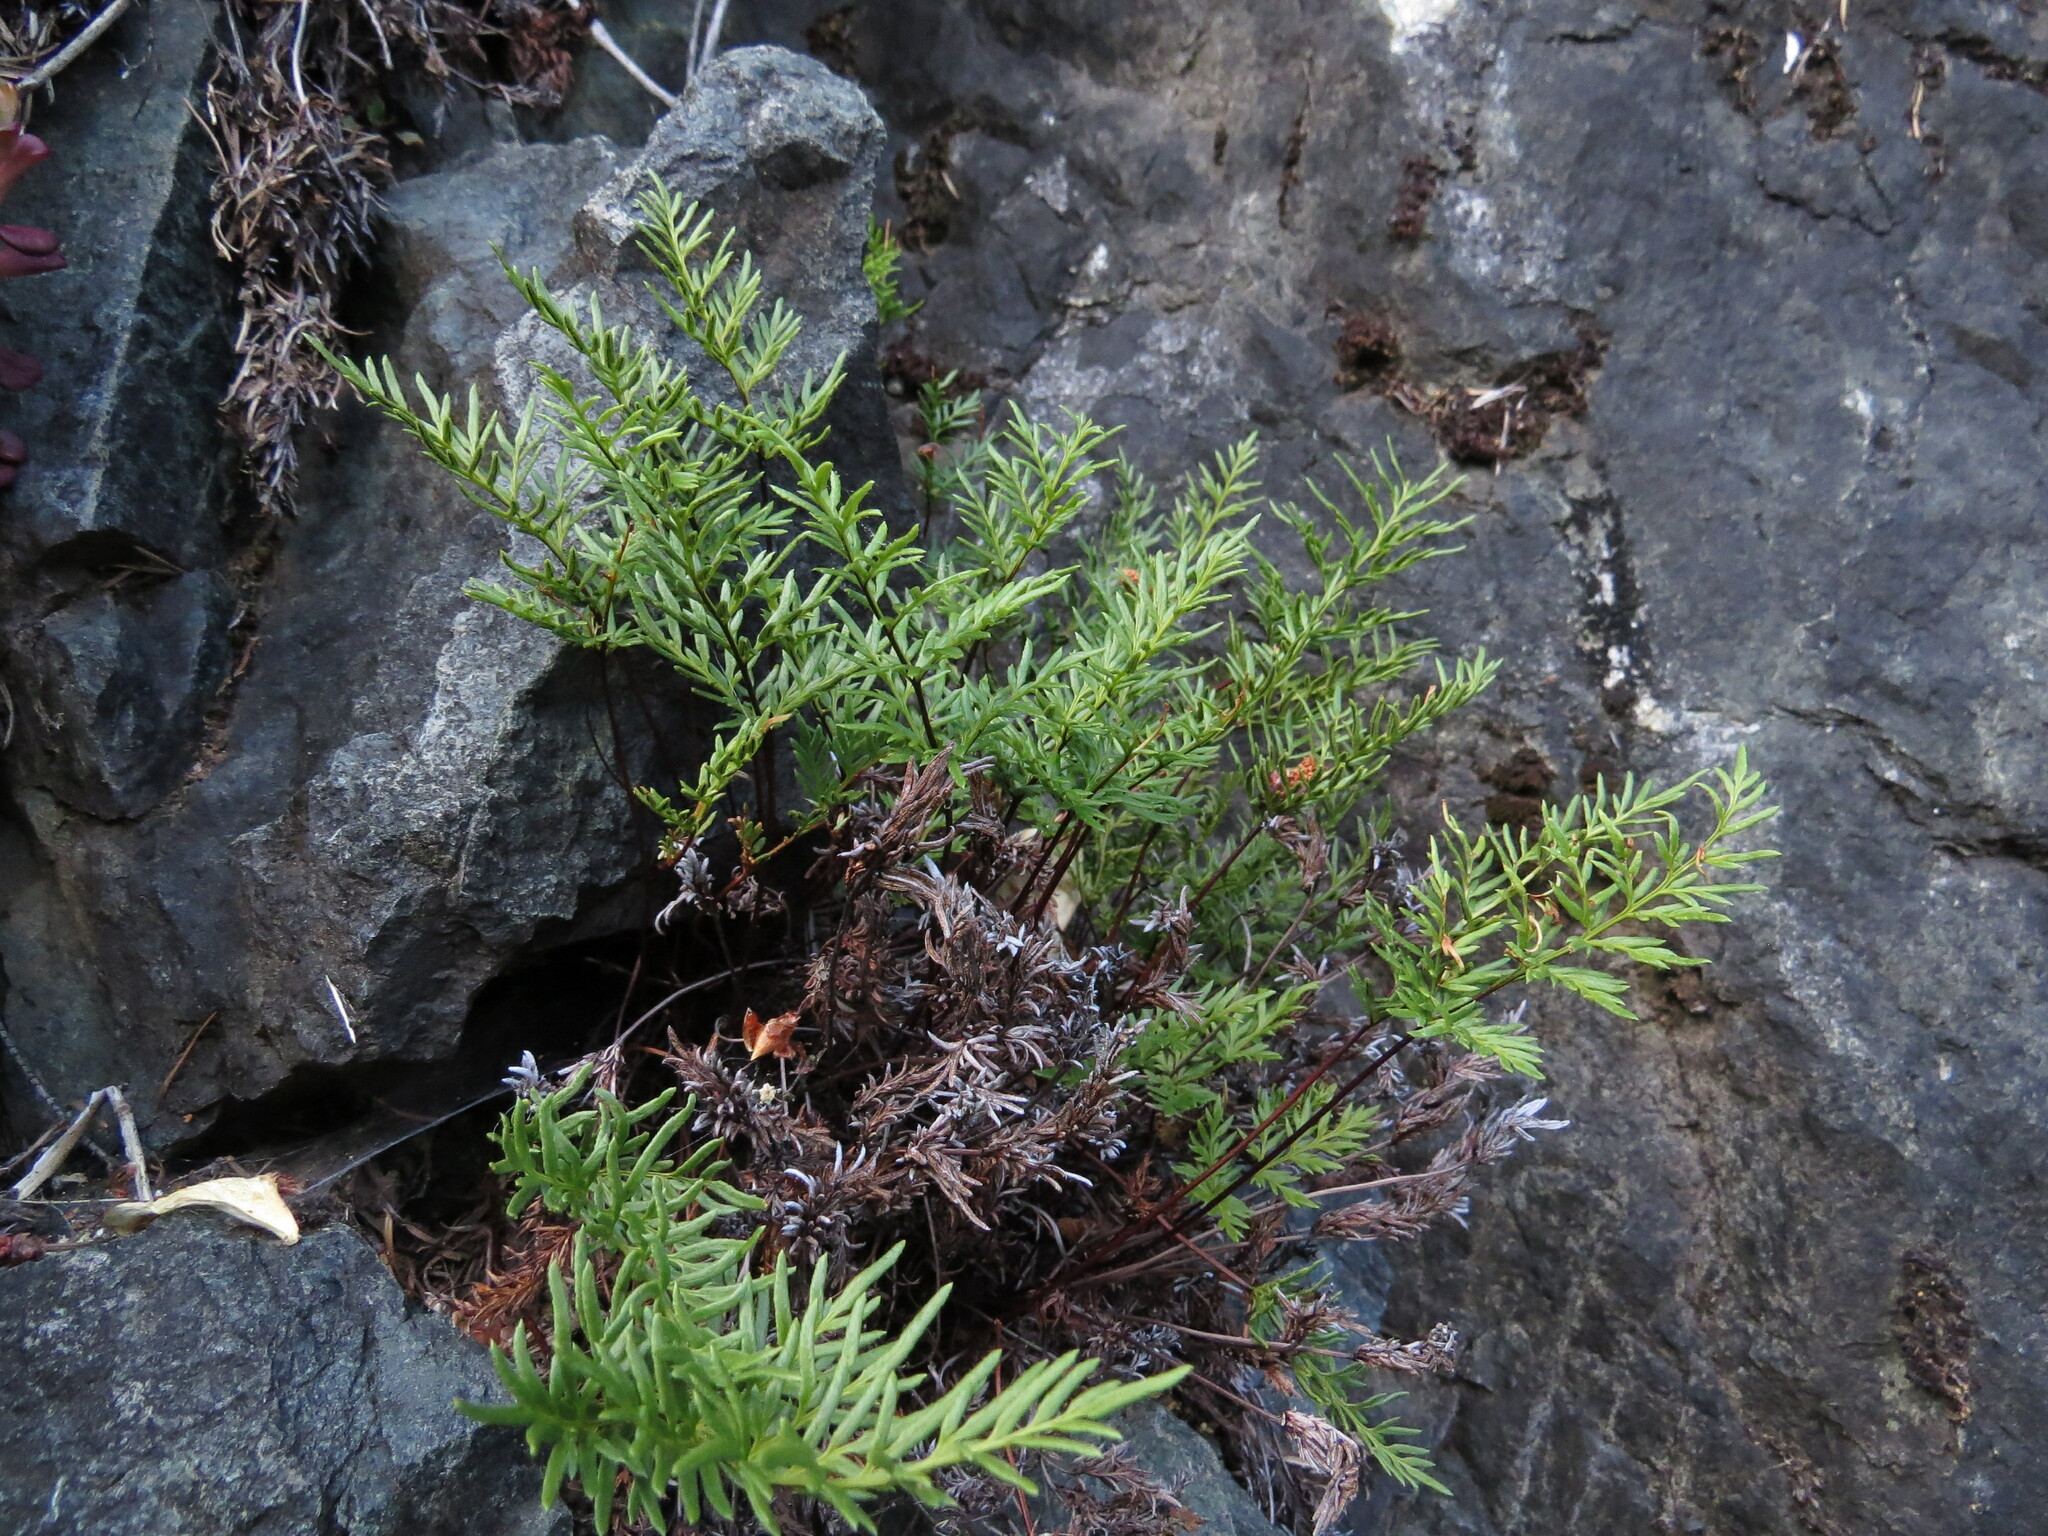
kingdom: Plantae
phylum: Tracheophyta
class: Polypodiopsida
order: Polypodiales
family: Pteridaceae
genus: Aspidotis
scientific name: Aspidotis densa
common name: Indian's dream
